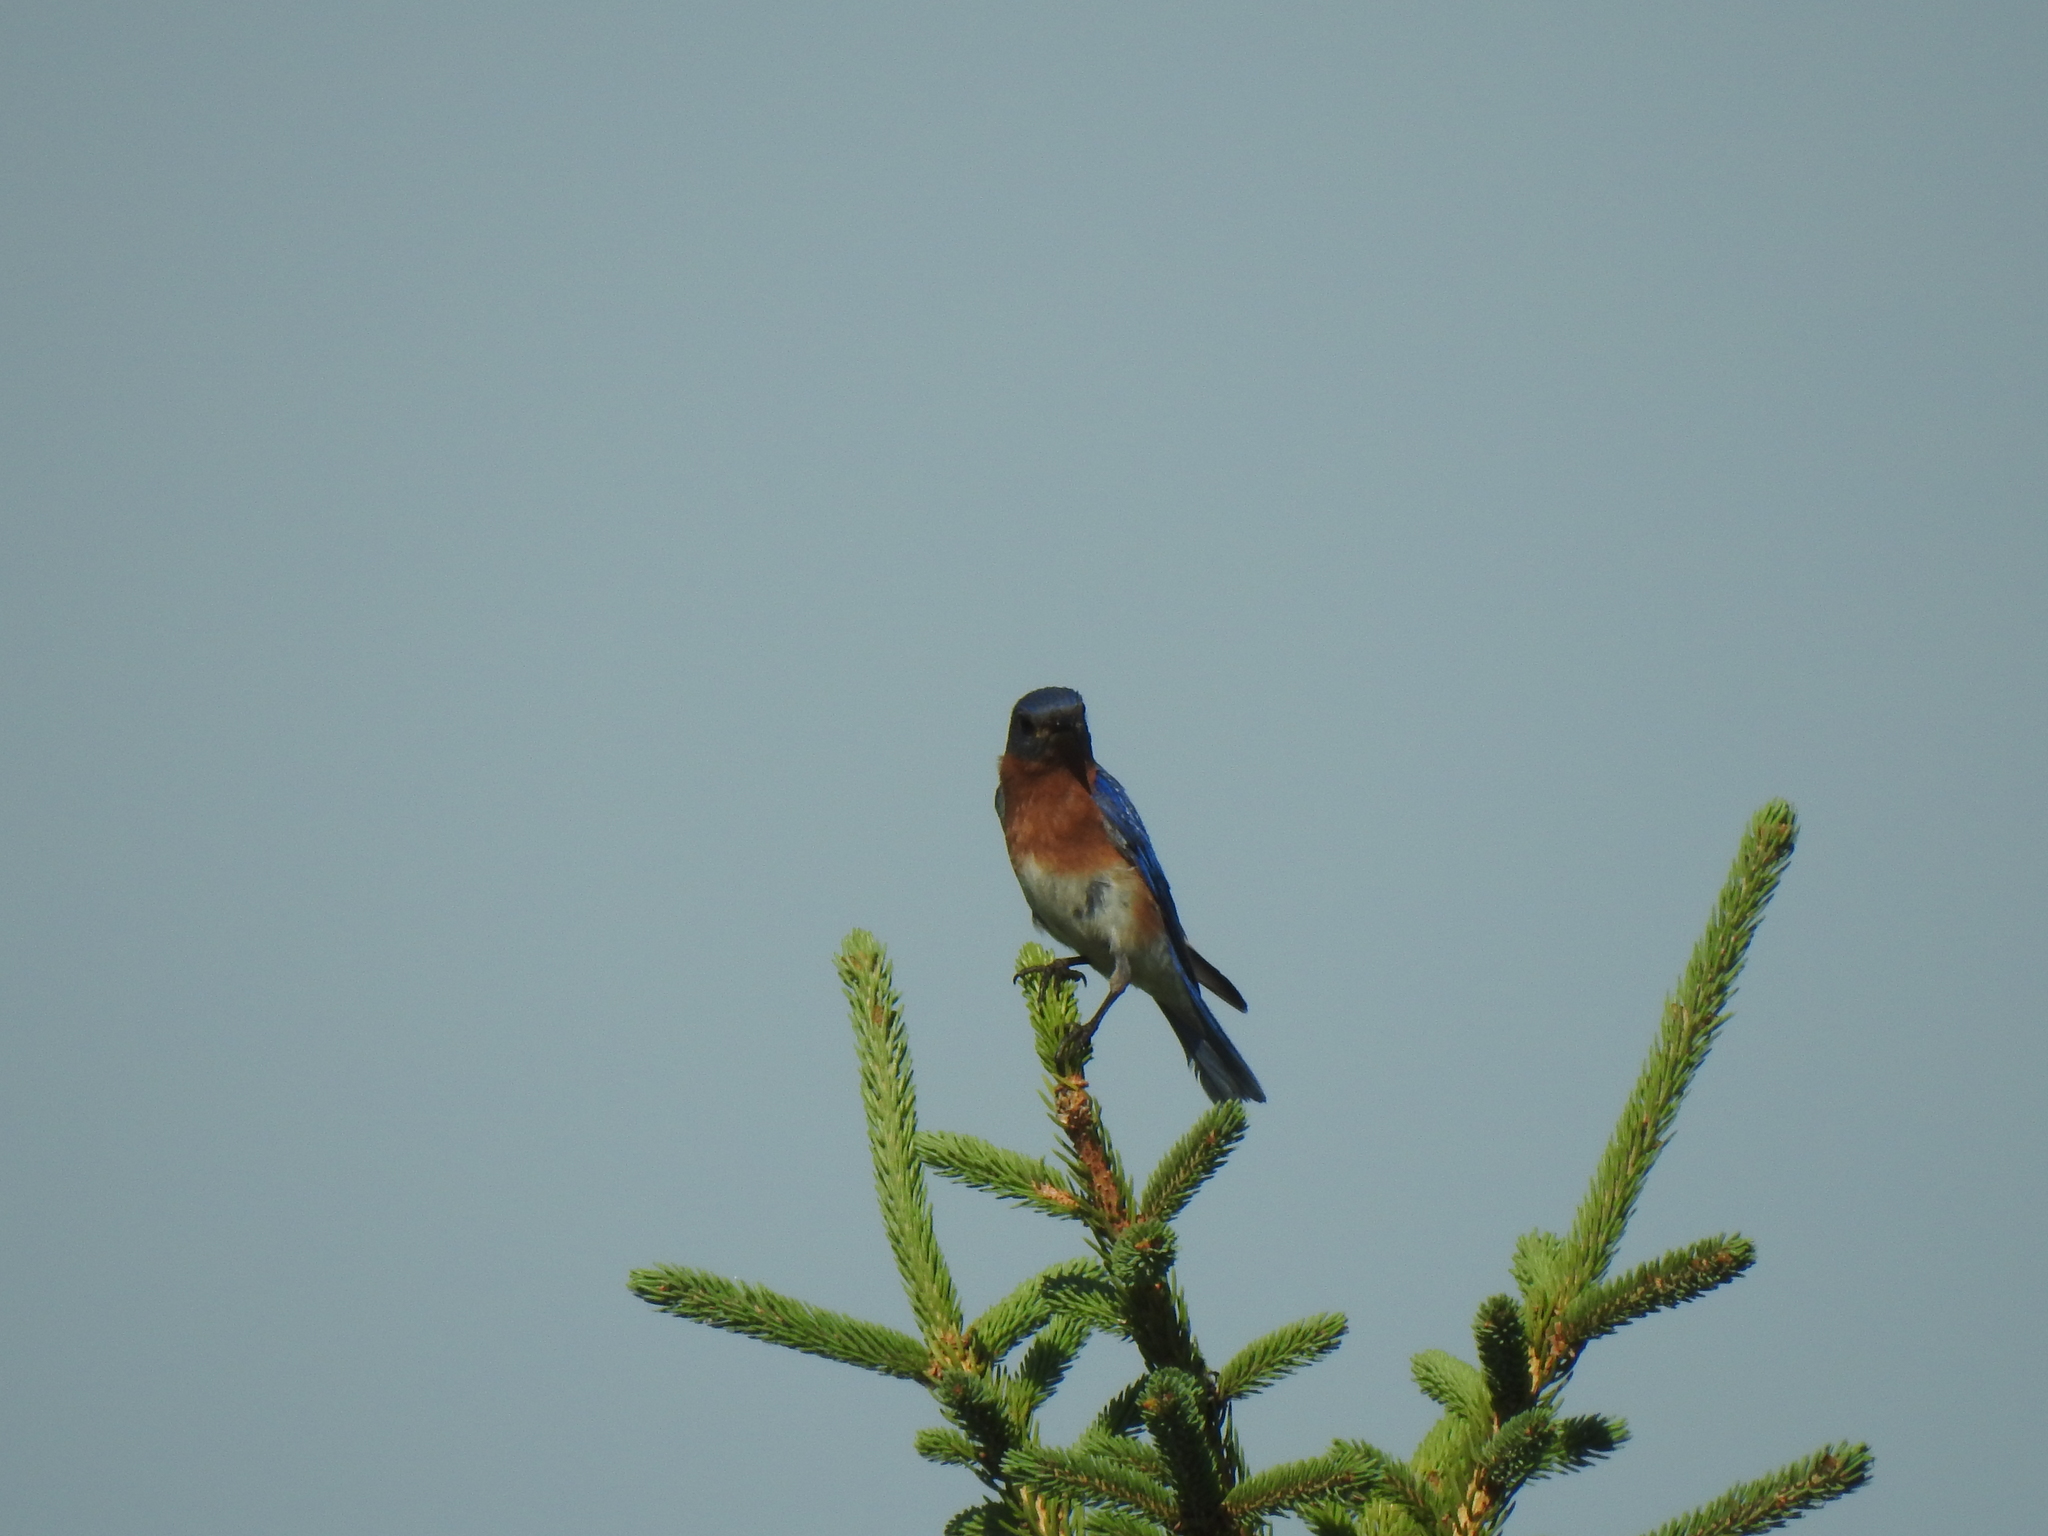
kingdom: Animalia
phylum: Chordata
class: Aves
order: Passeriformes
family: Turdidae
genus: Sialia
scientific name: Sialia sialis
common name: Eastern bluebird
